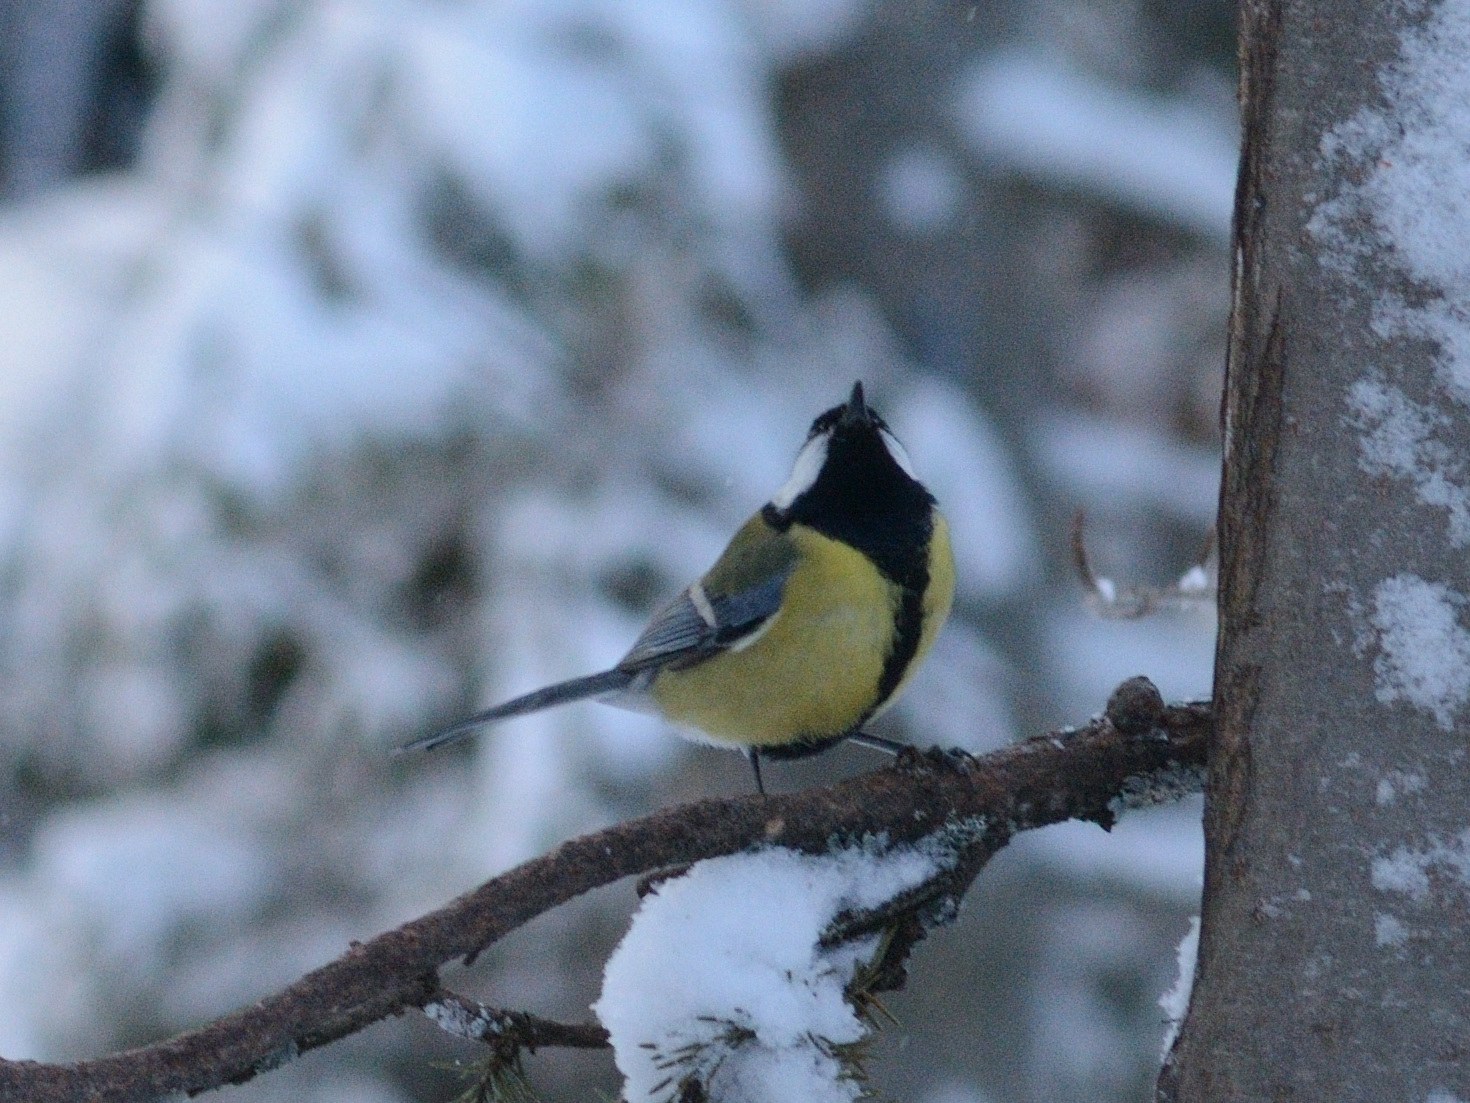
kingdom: Animalia
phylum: Chordata
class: Aves
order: Passeriformes
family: Paridae
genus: Parus
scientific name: Parus major
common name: Great tit
